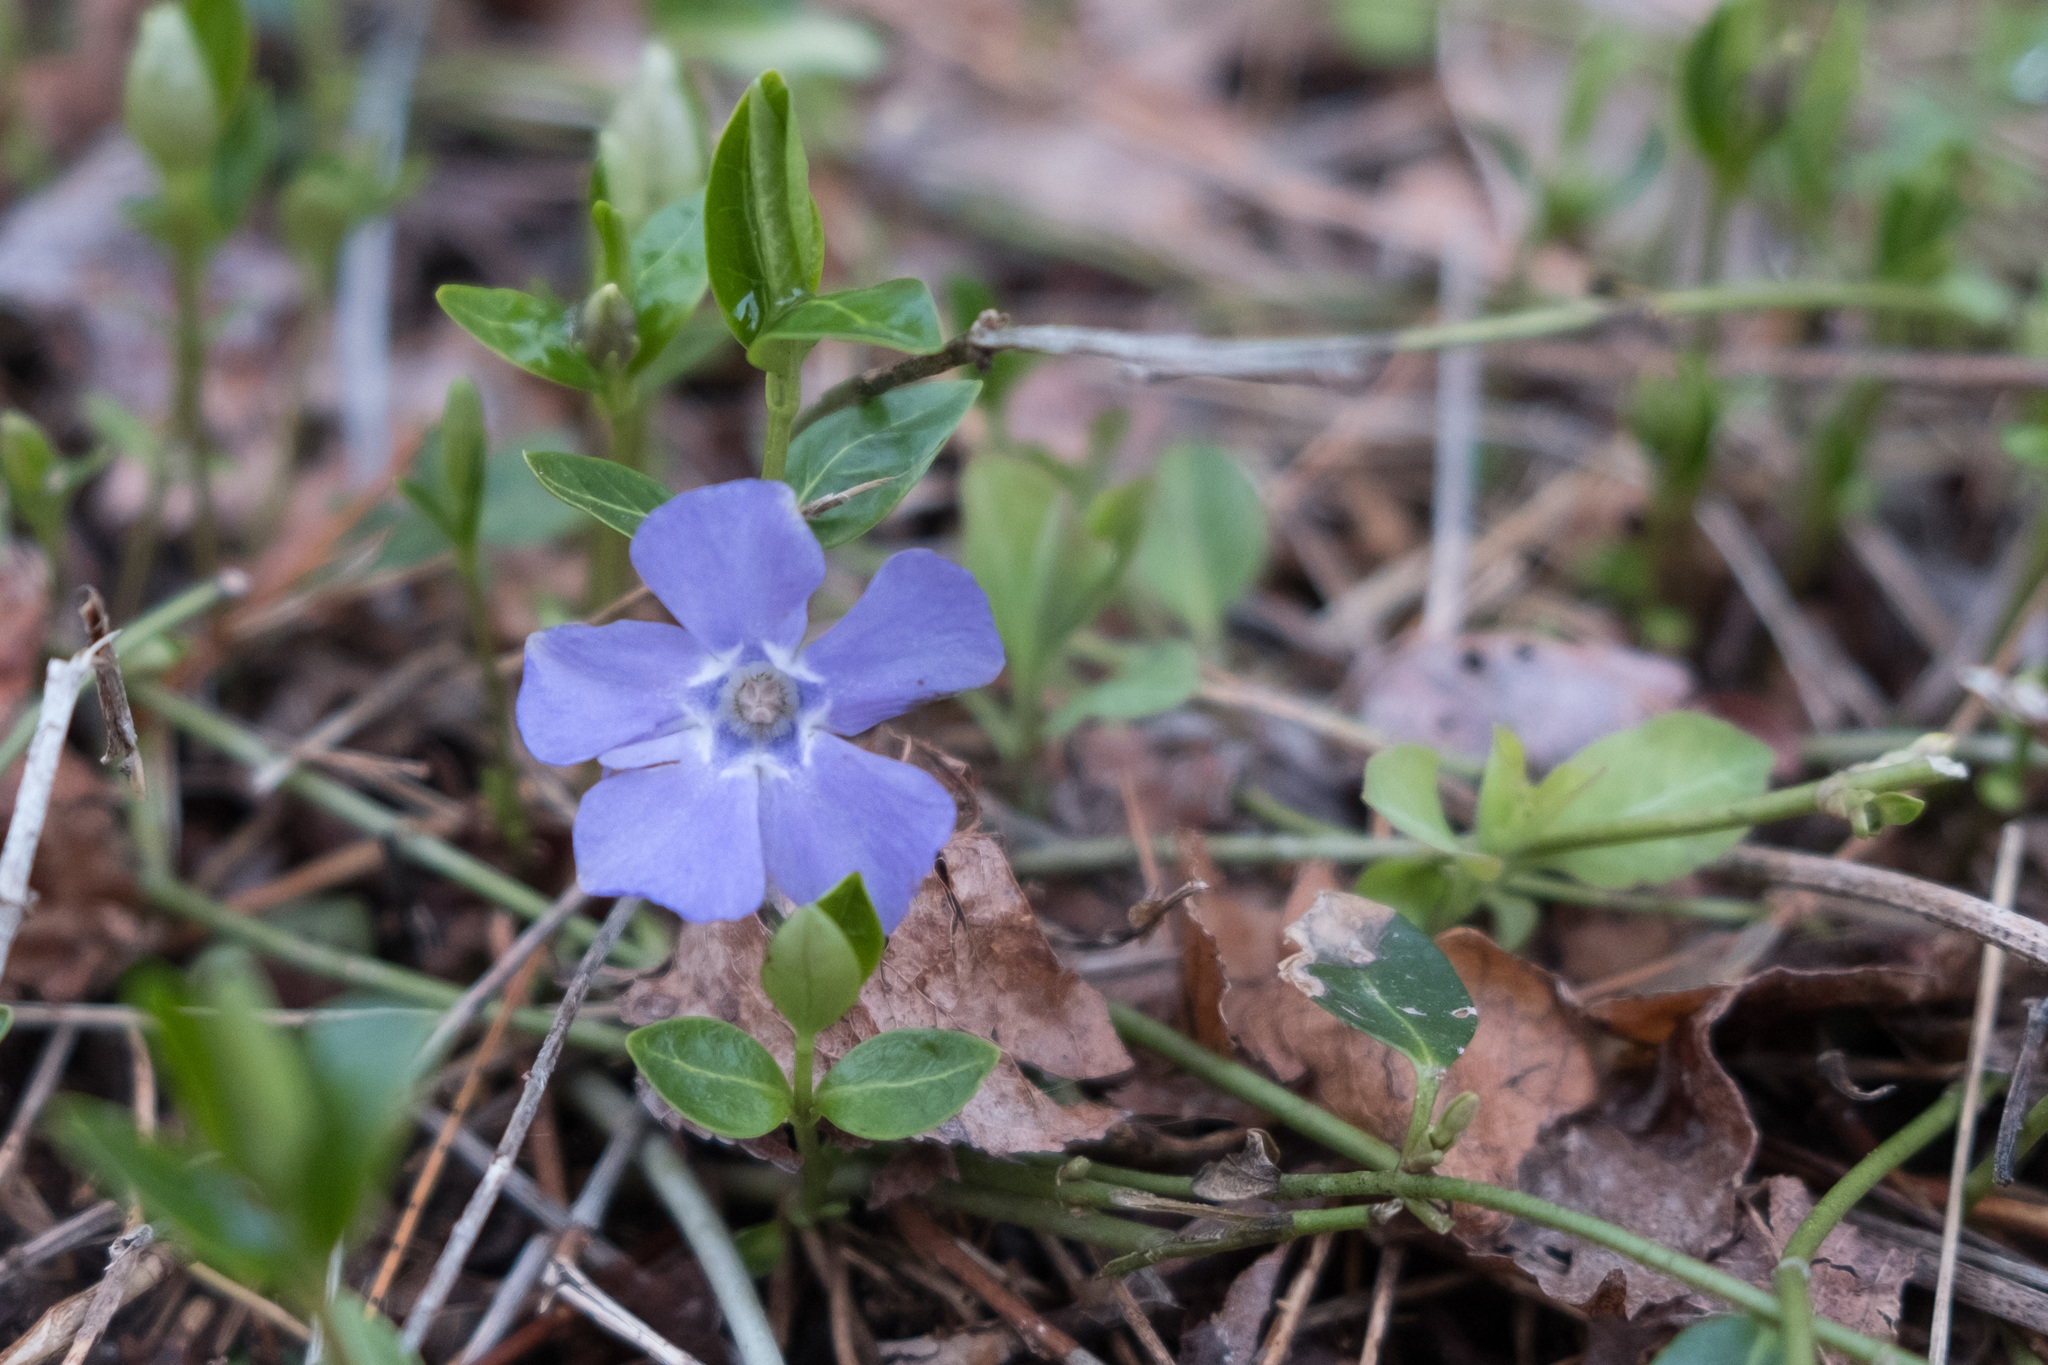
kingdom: Plantae
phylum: Tracheophyta
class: Magnoliopsida
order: Gentianales
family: Apocynaceae
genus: Vinca
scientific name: Vinca minor
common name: Lesser periwinkle
